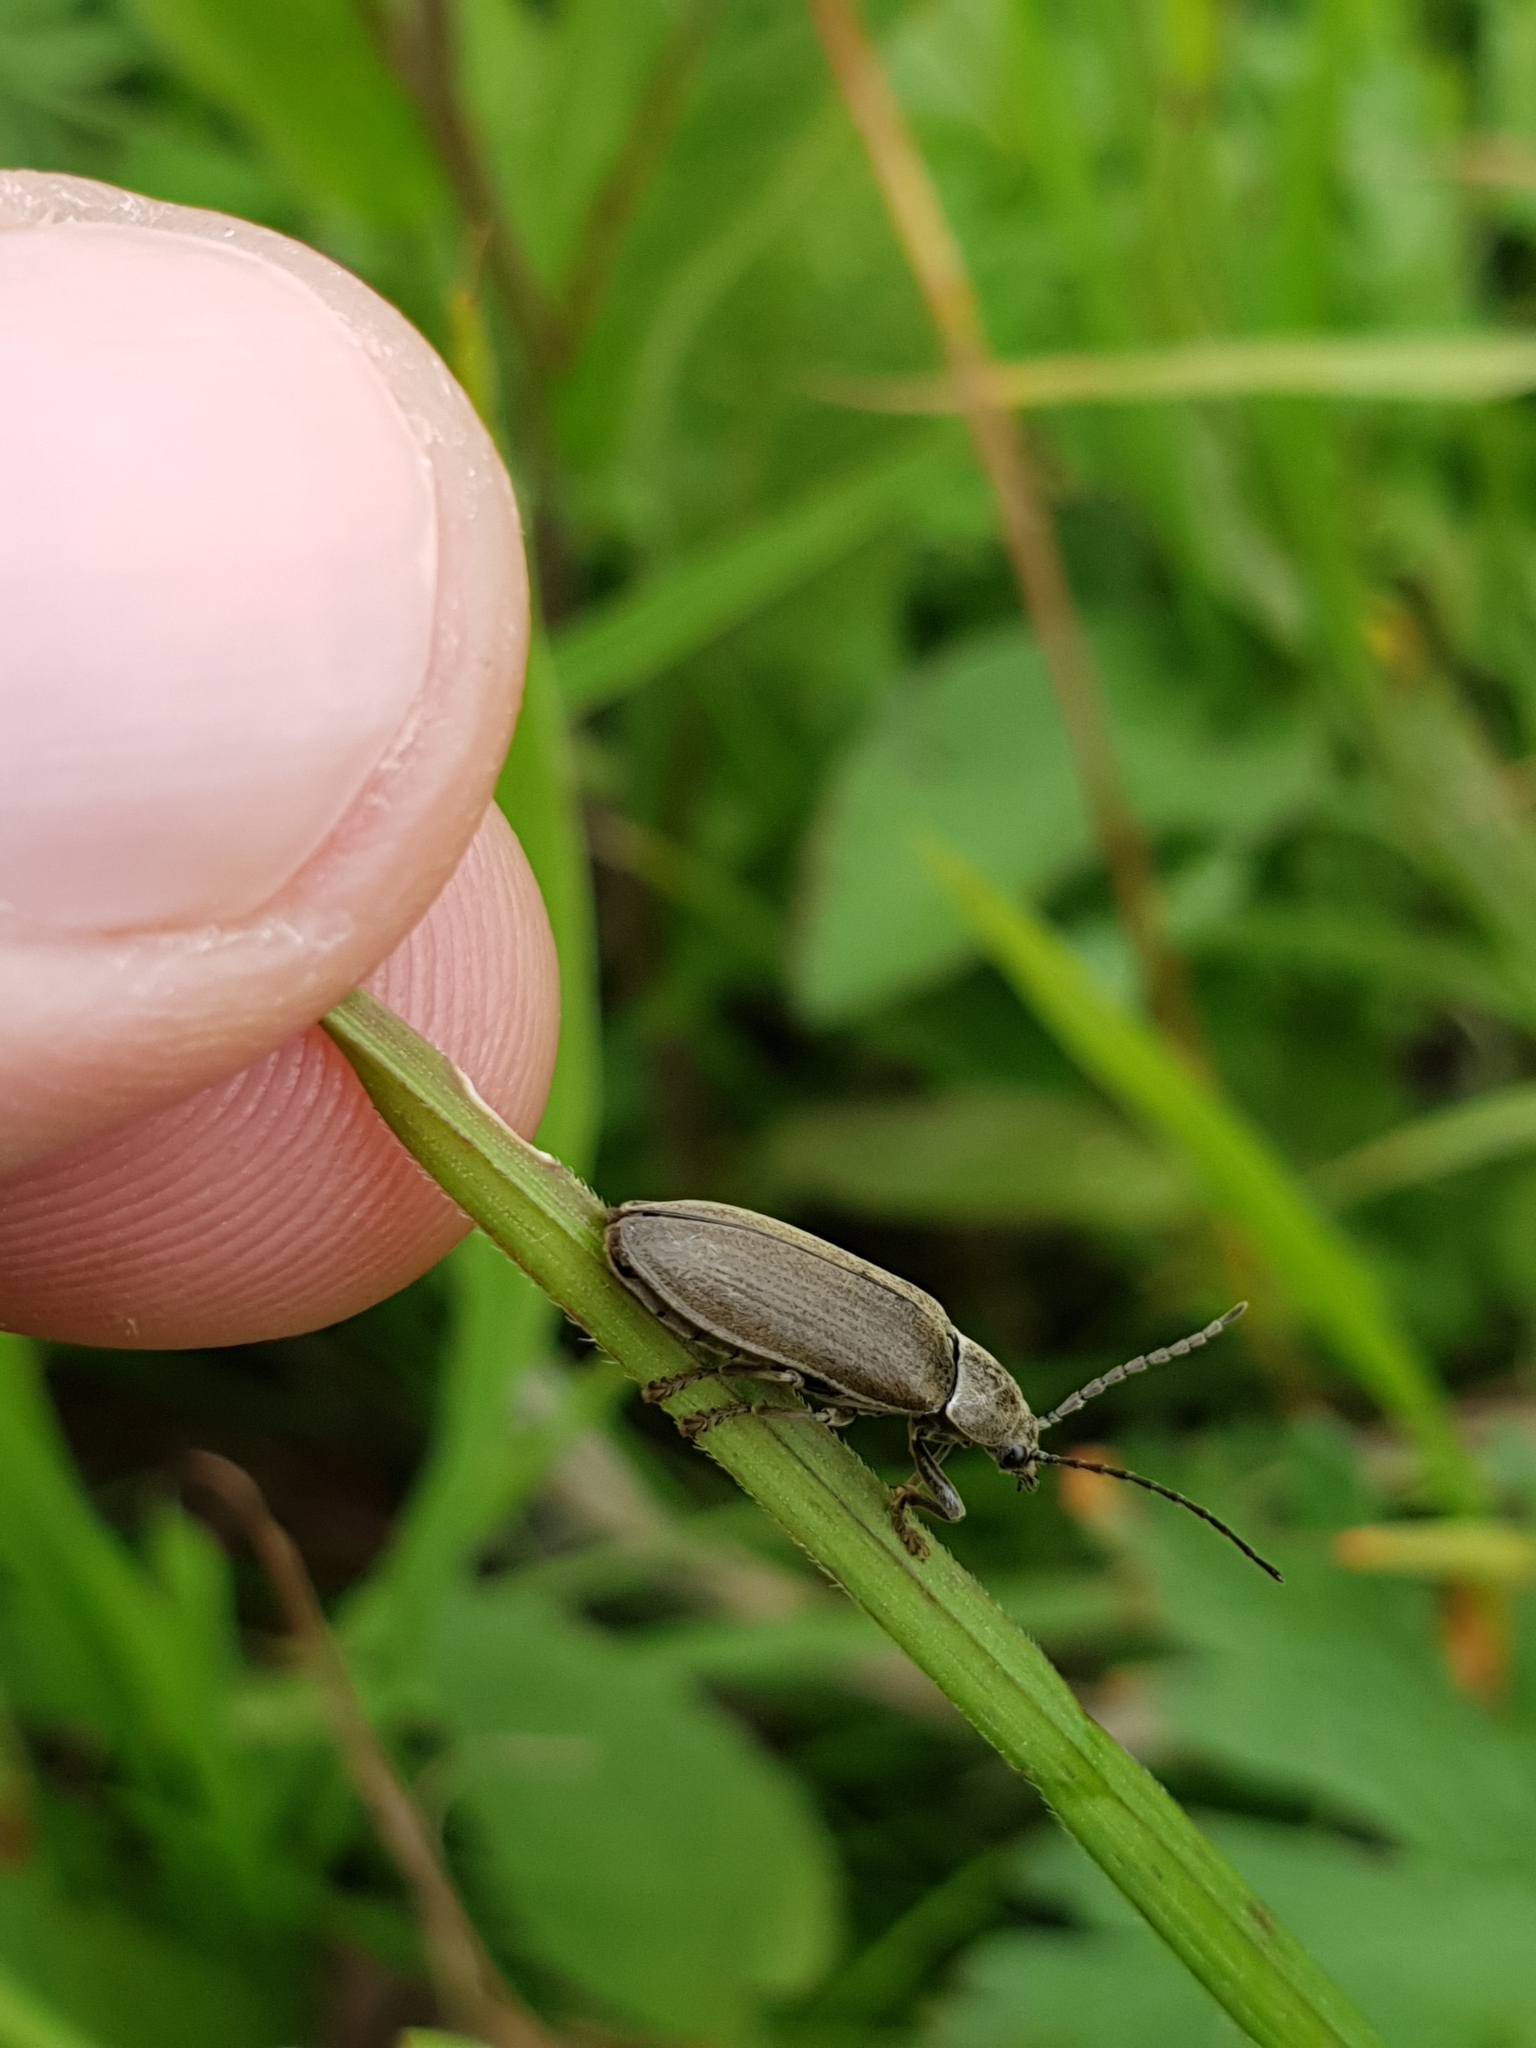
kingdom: Animalia
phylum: Arthropoda
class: Insecta
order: Coleoptera
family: Dascillidae
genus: Dascillus
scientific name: Dascillus cervinus
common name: Orchid beetle
